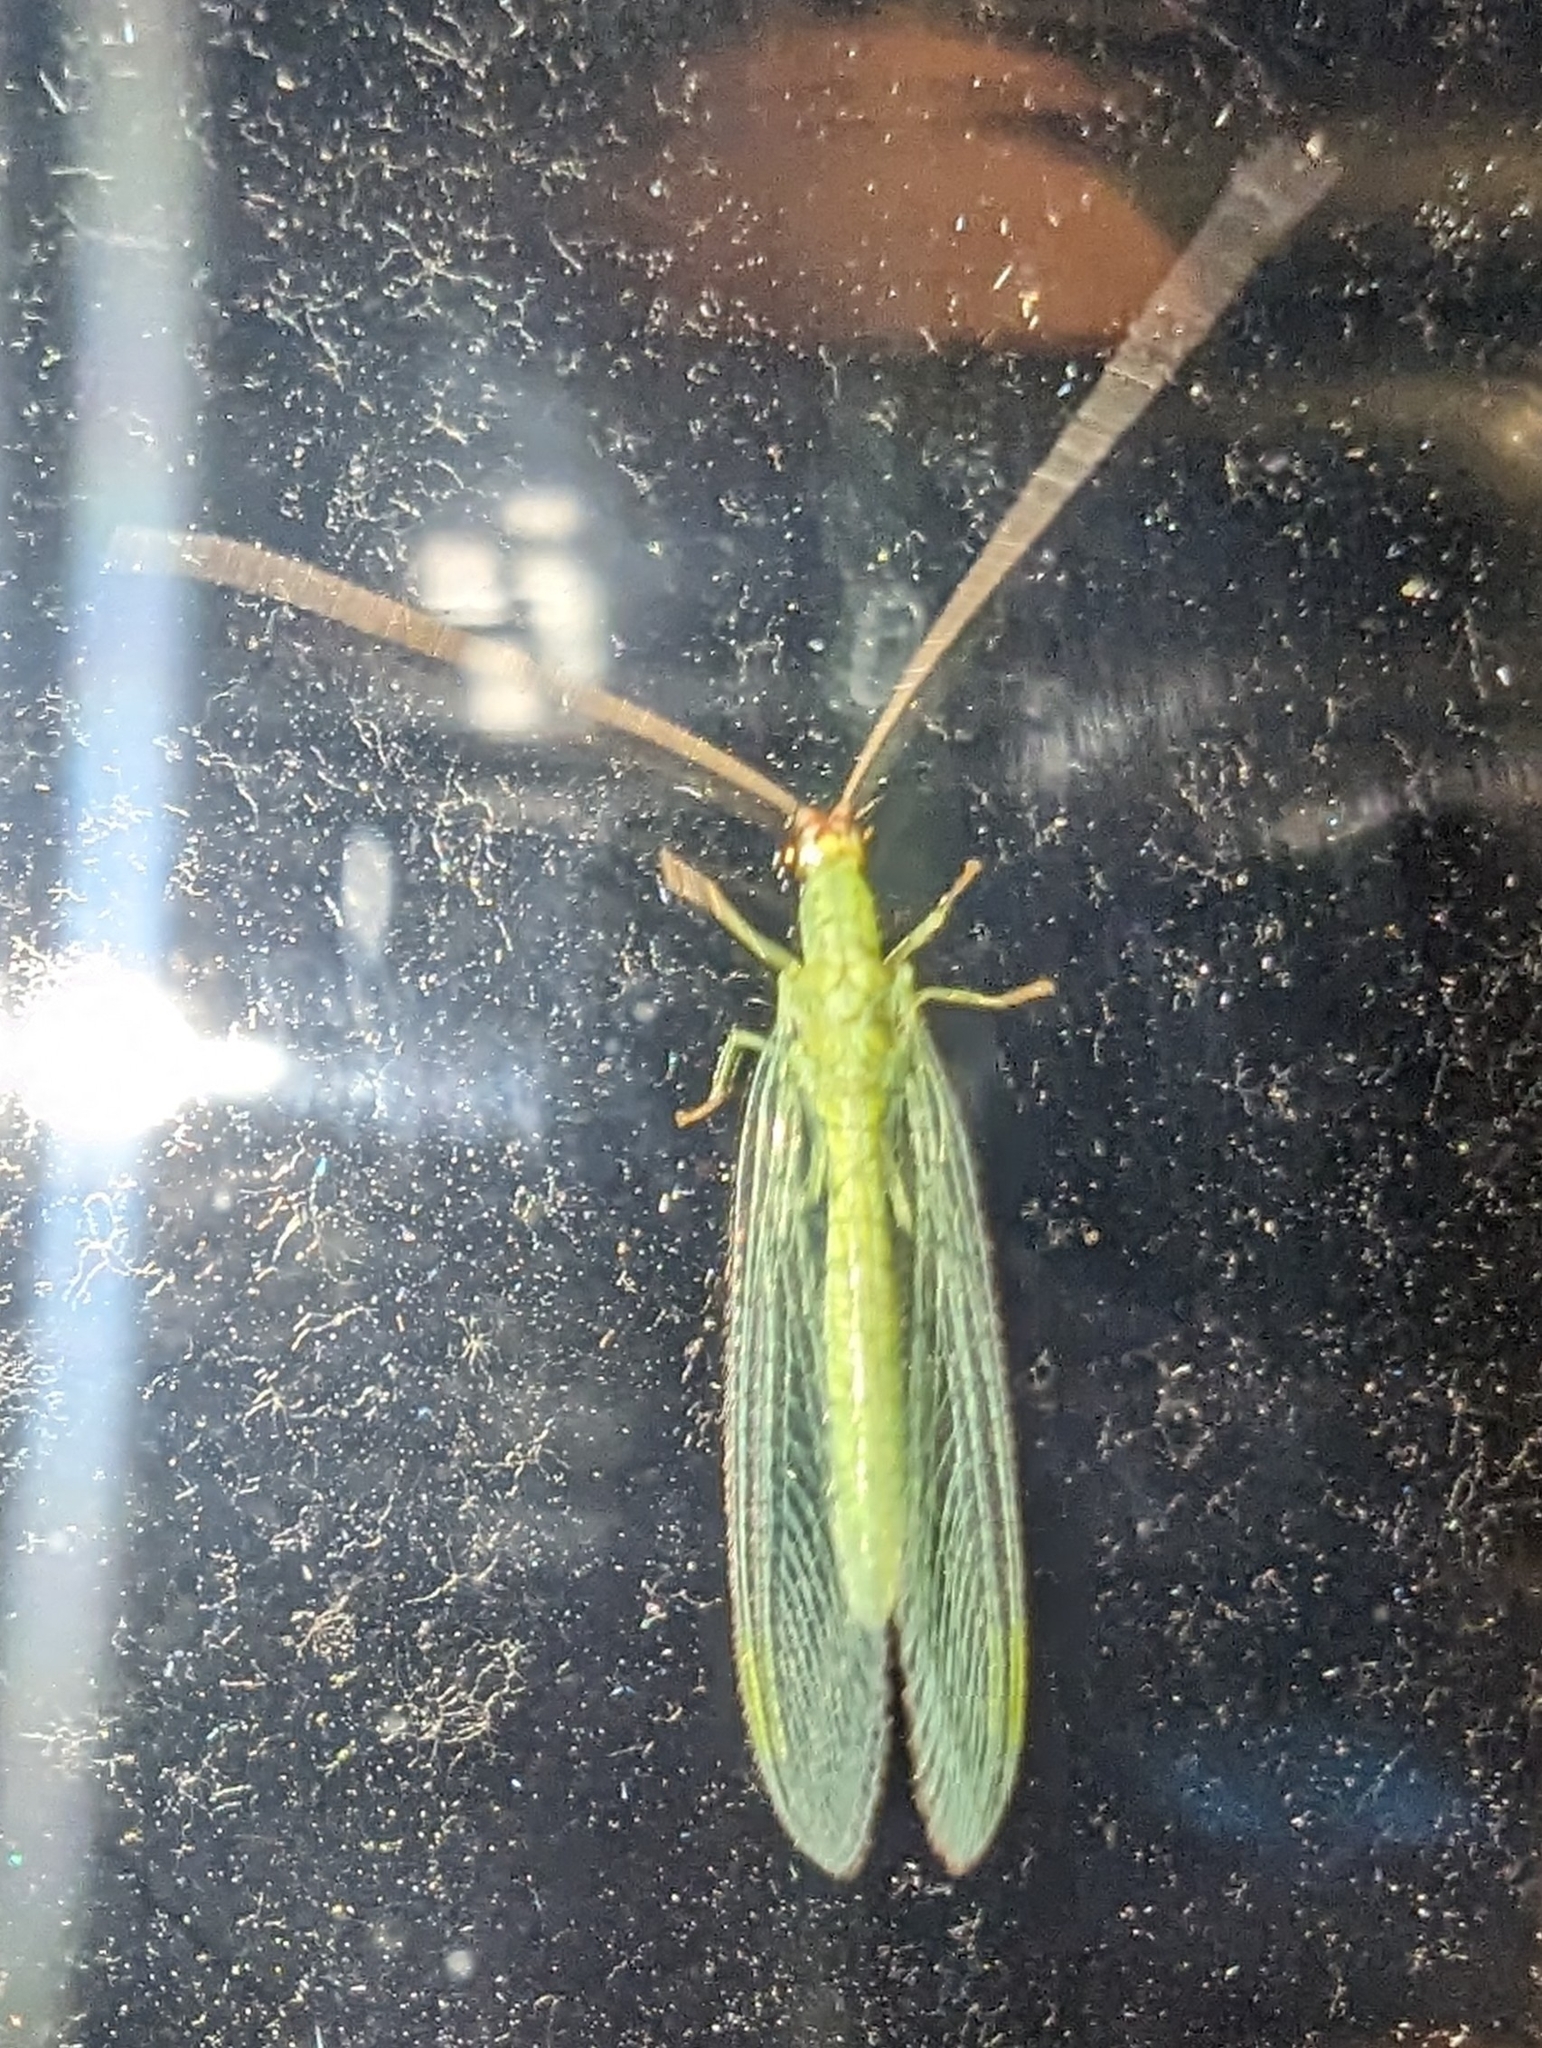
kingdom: Animalia
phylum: Arthropoda
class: Insecta
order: Neuroptera
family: Chrysopidae
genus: Chrysopa
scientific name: Chrysopa oculata
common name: Golden-eyed lacewing
